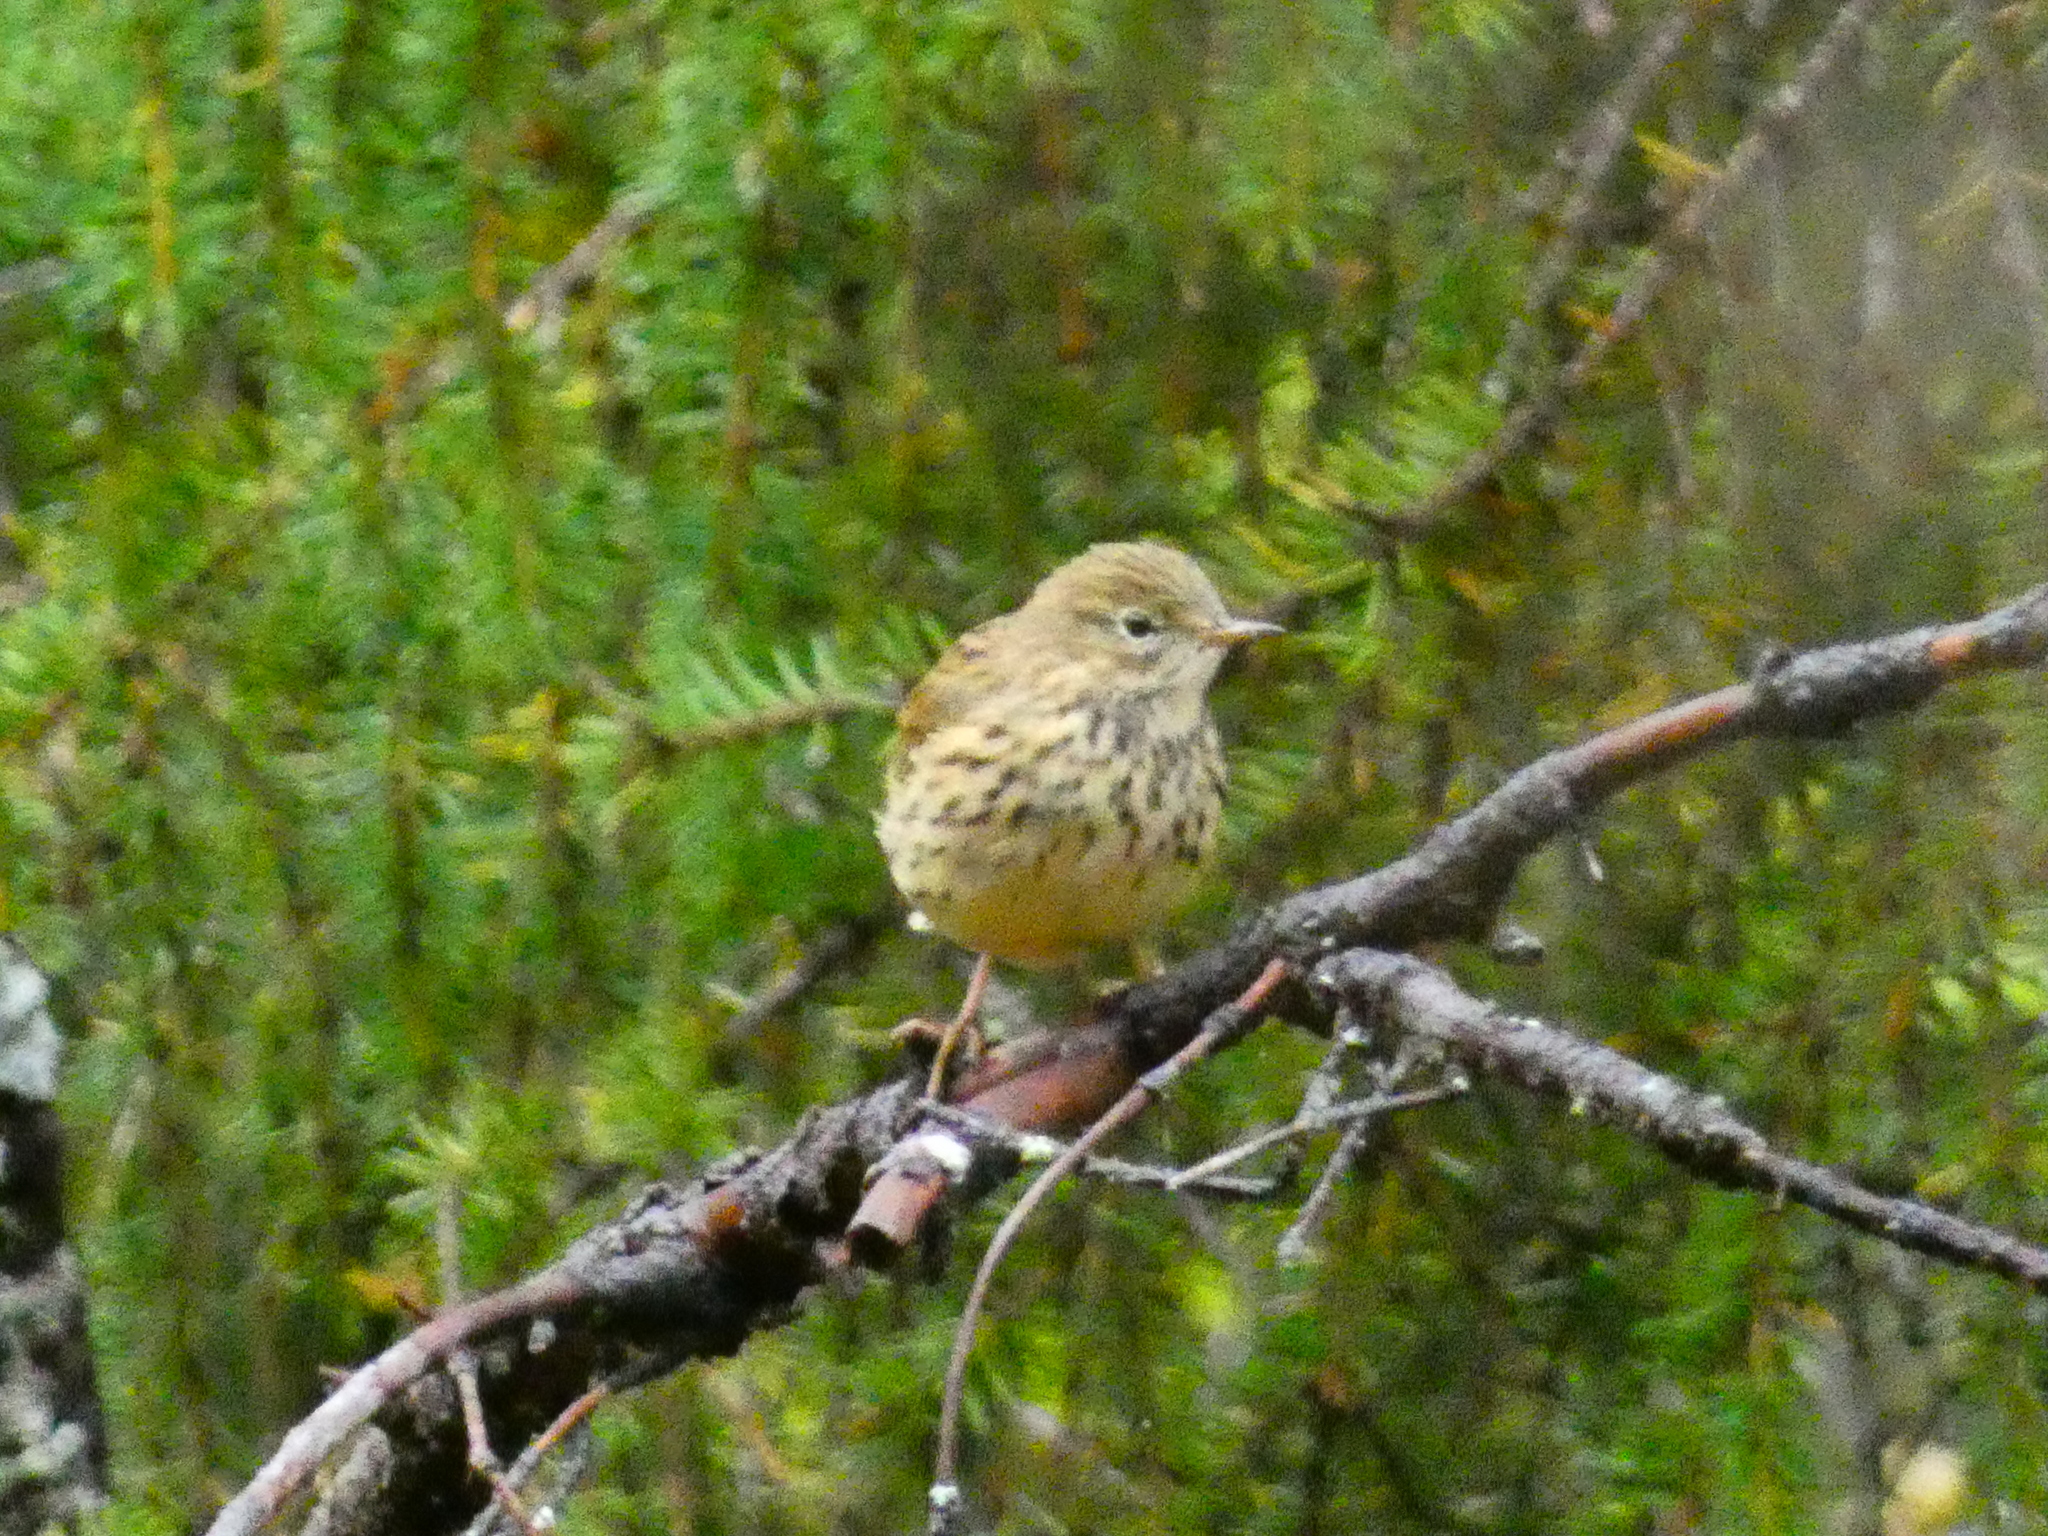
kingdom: Animalia
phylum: Chordata
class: Aves
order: Passeriformes
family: Motacillidae
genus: Anthus
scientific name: Anthus pratensis
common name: Meadow pipit
